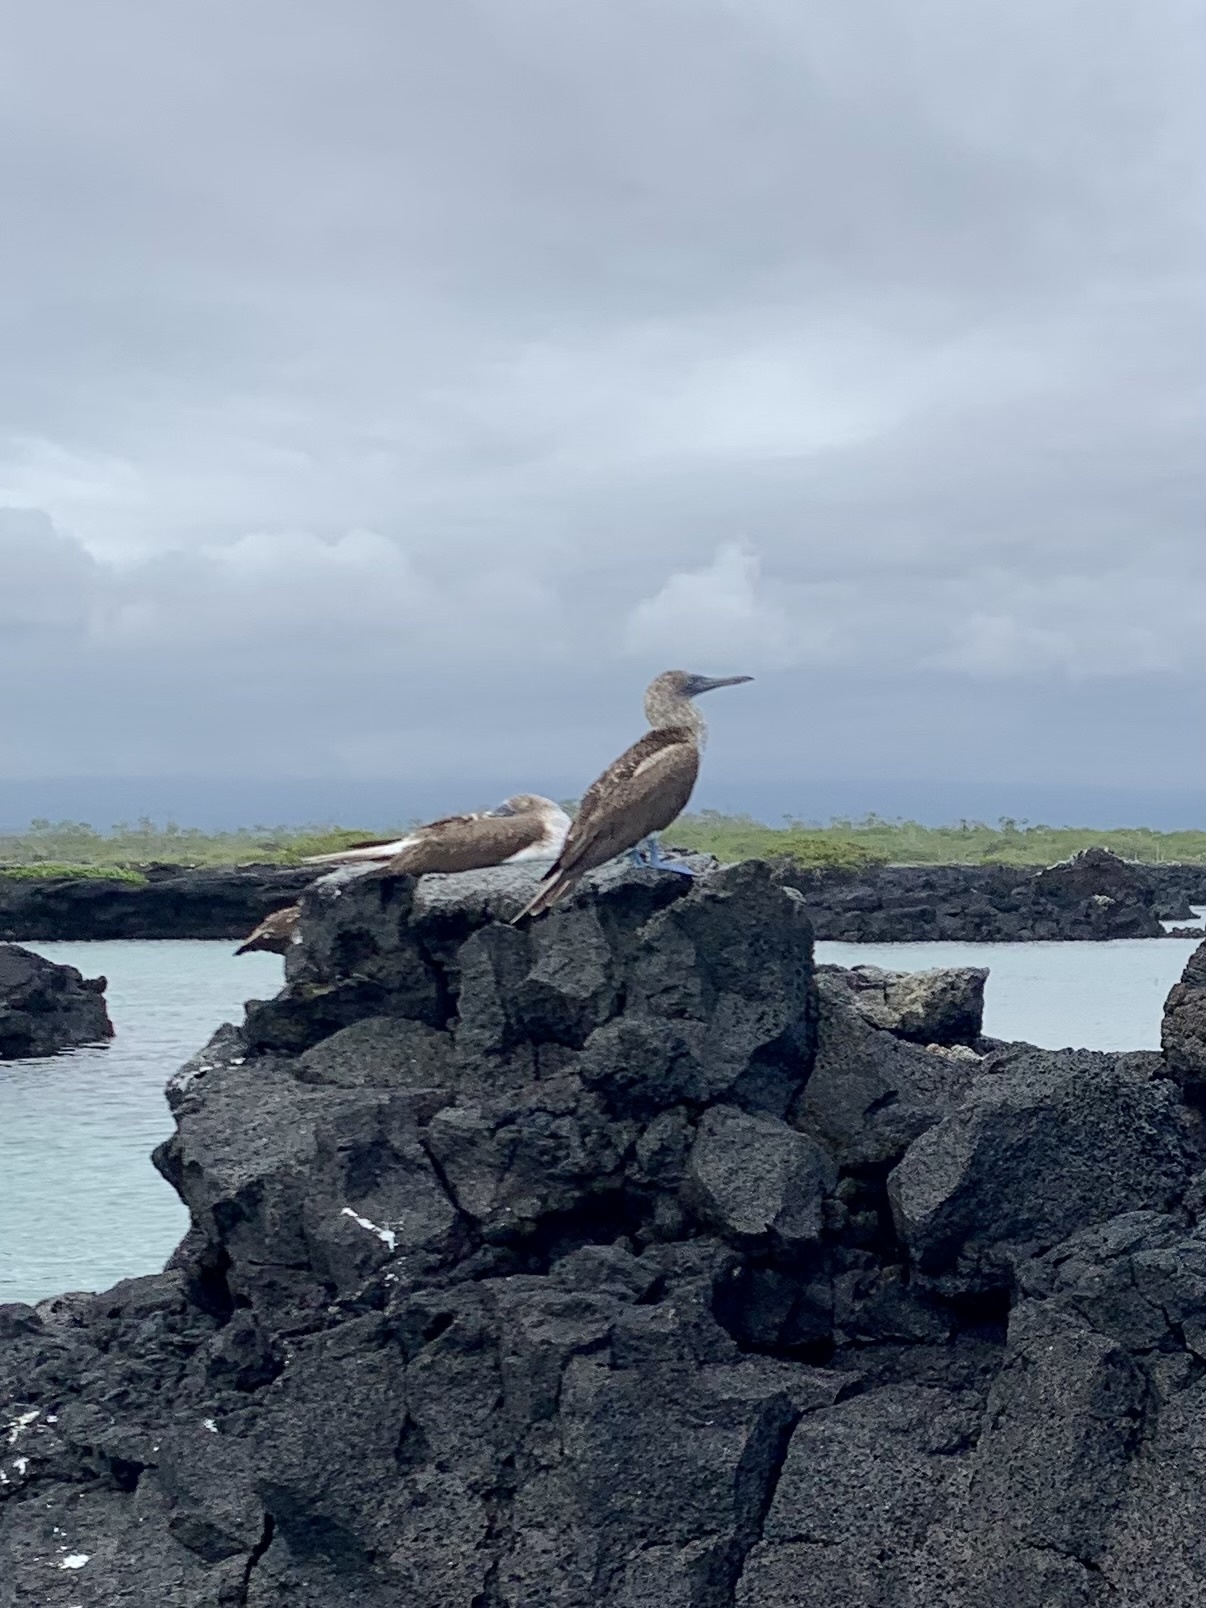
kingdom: Animalia
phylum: Chordata
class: Aves
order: Suliformes
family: Sulidae
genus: Sula
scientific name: Sula nebouxii
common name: Blue-footed booby
